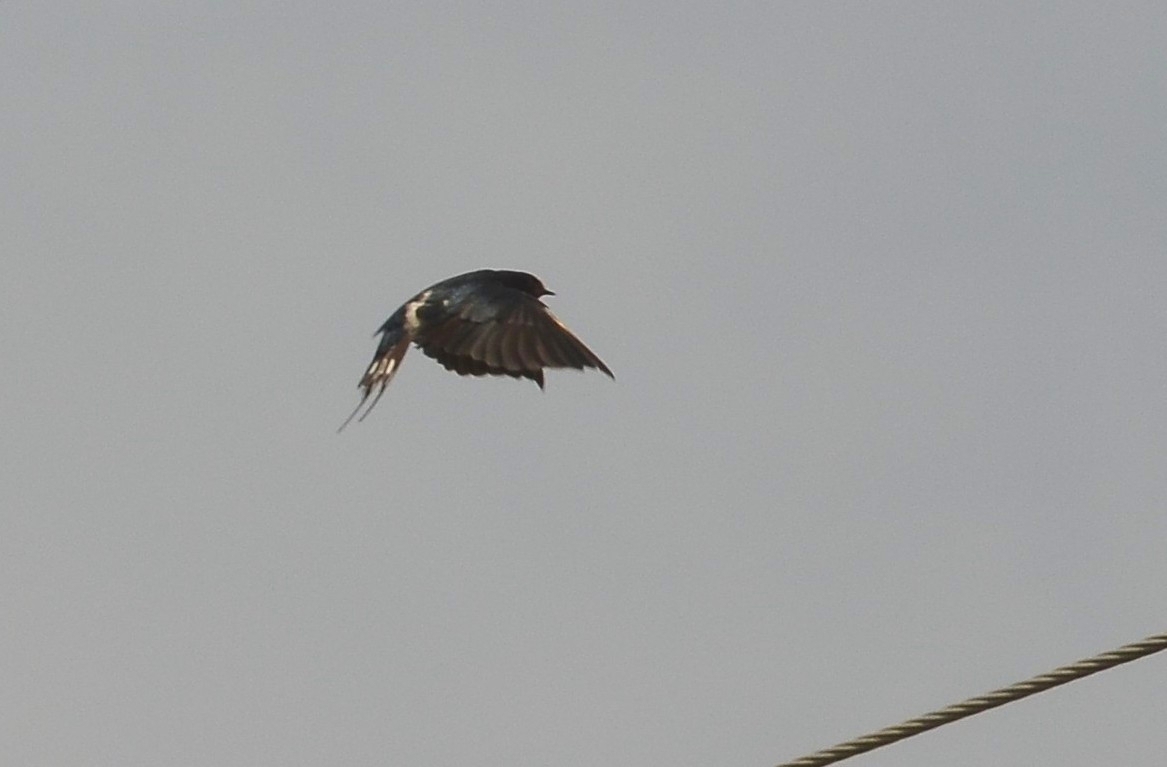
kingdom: Animalia
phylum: Chordata
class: Aves
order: Passeriformes
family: Hirundinidae
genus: Hirundo
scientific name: Hirundo rustica
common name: Barn swallow
